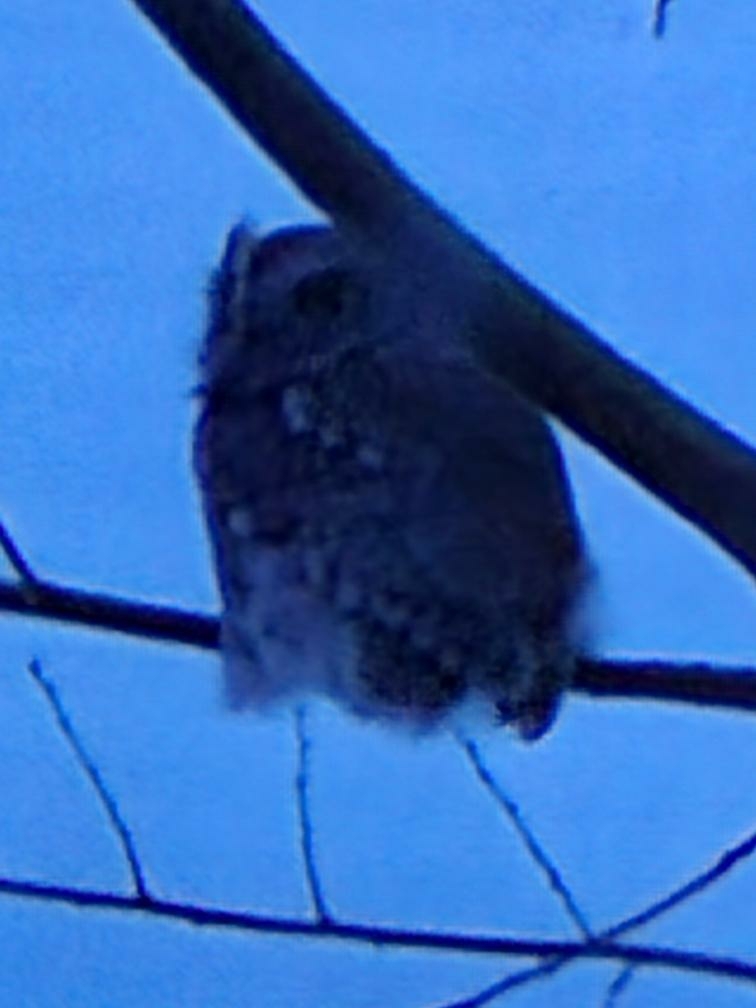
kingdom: Animalia
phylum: Chordata
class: Aves
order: Strigiformes
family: Strigidae
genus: Megascops
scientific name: Megascops asio
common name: Eastern screech-owl
